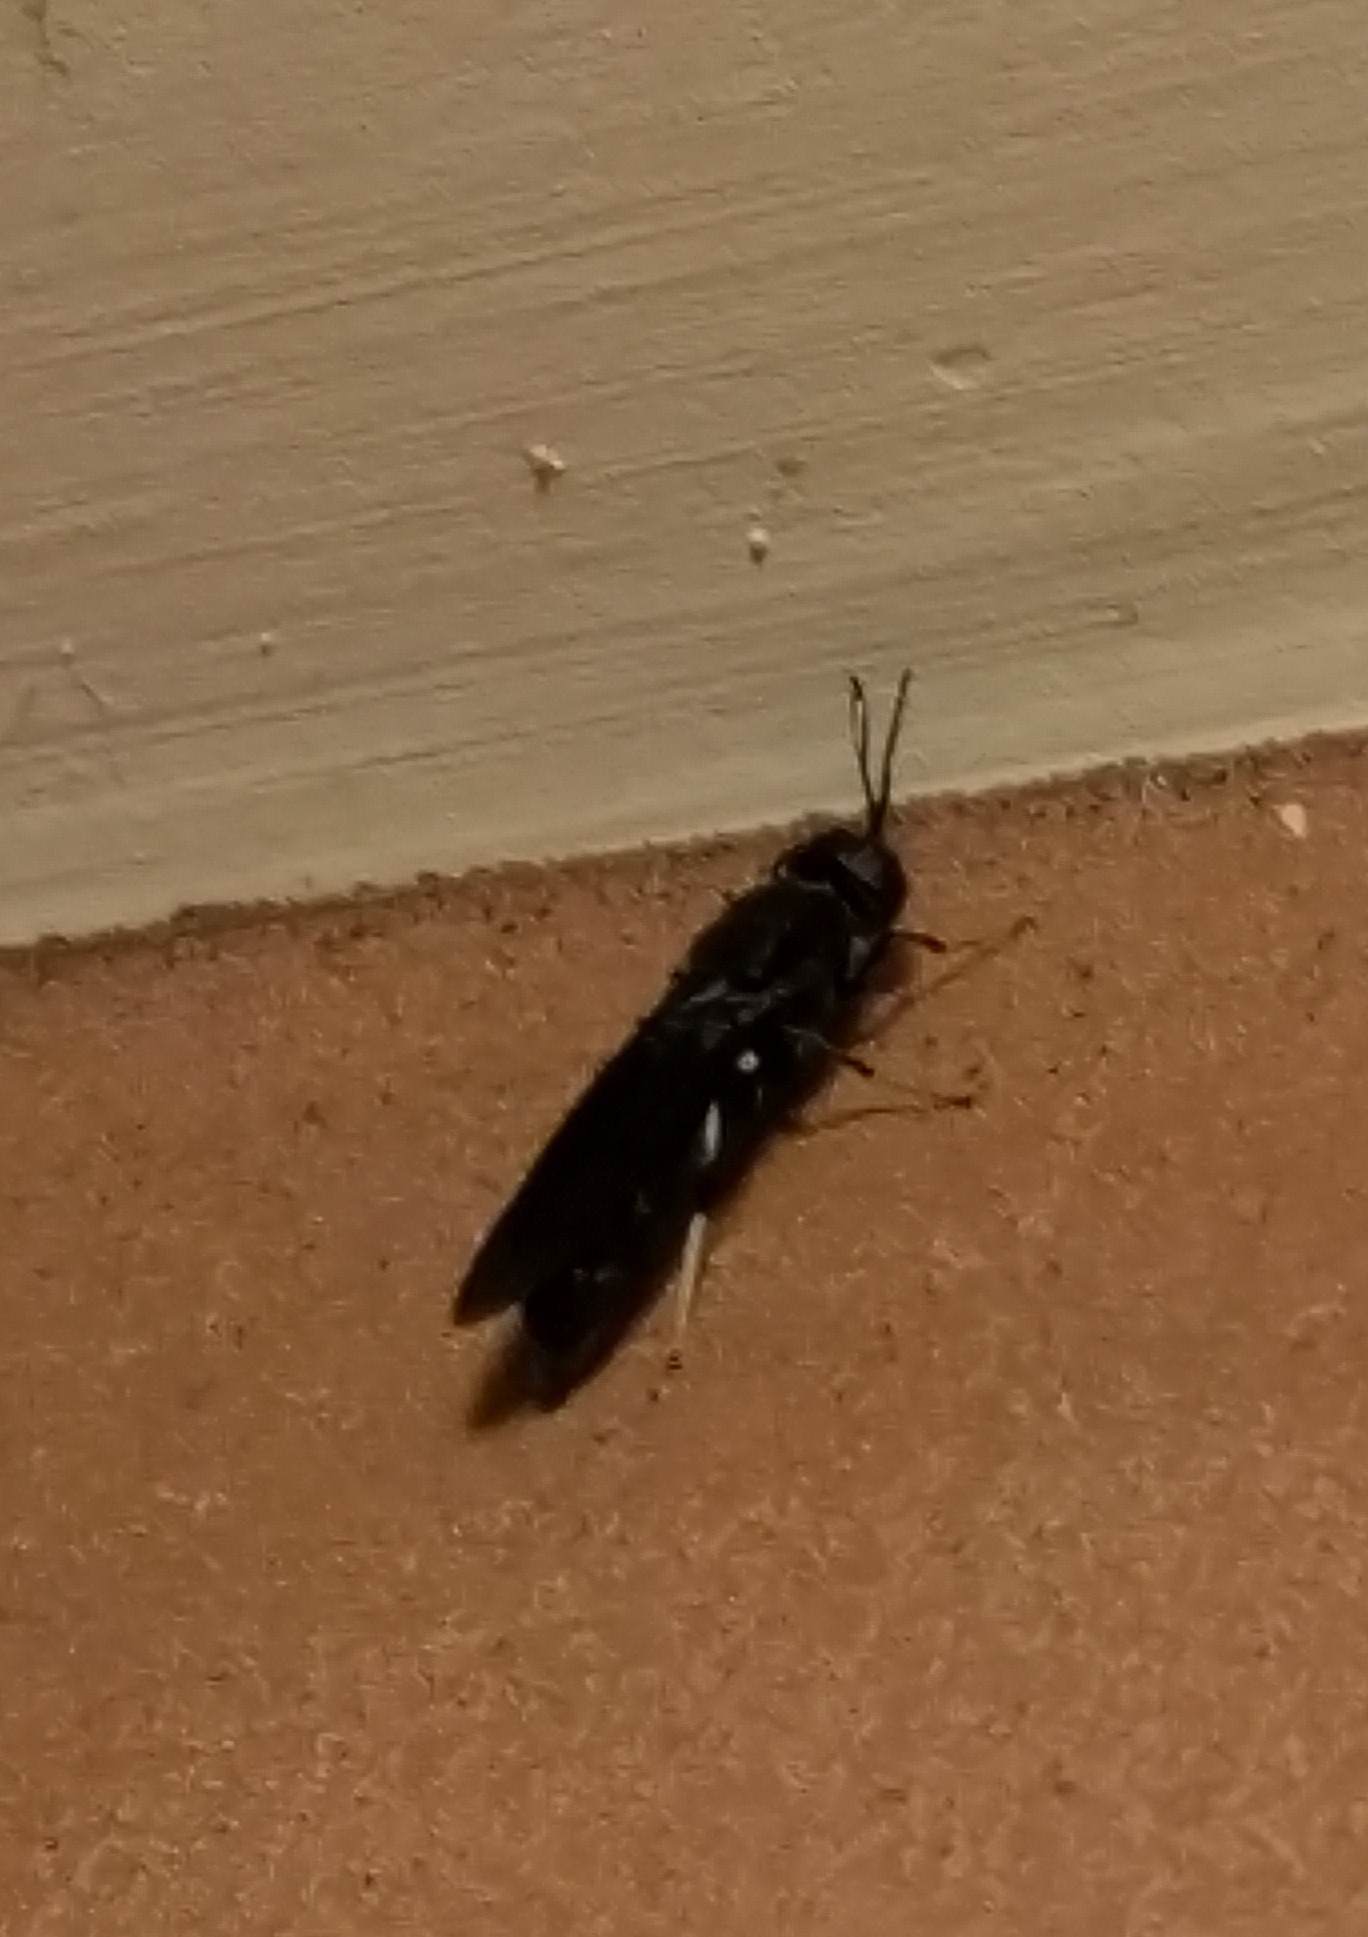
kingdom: Animalia
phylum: Arthropoda
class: Insecta
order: Diptera
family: Stratiomyidae
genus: Hermetia
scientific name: Hermetia illucens
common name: Black soldier fly
